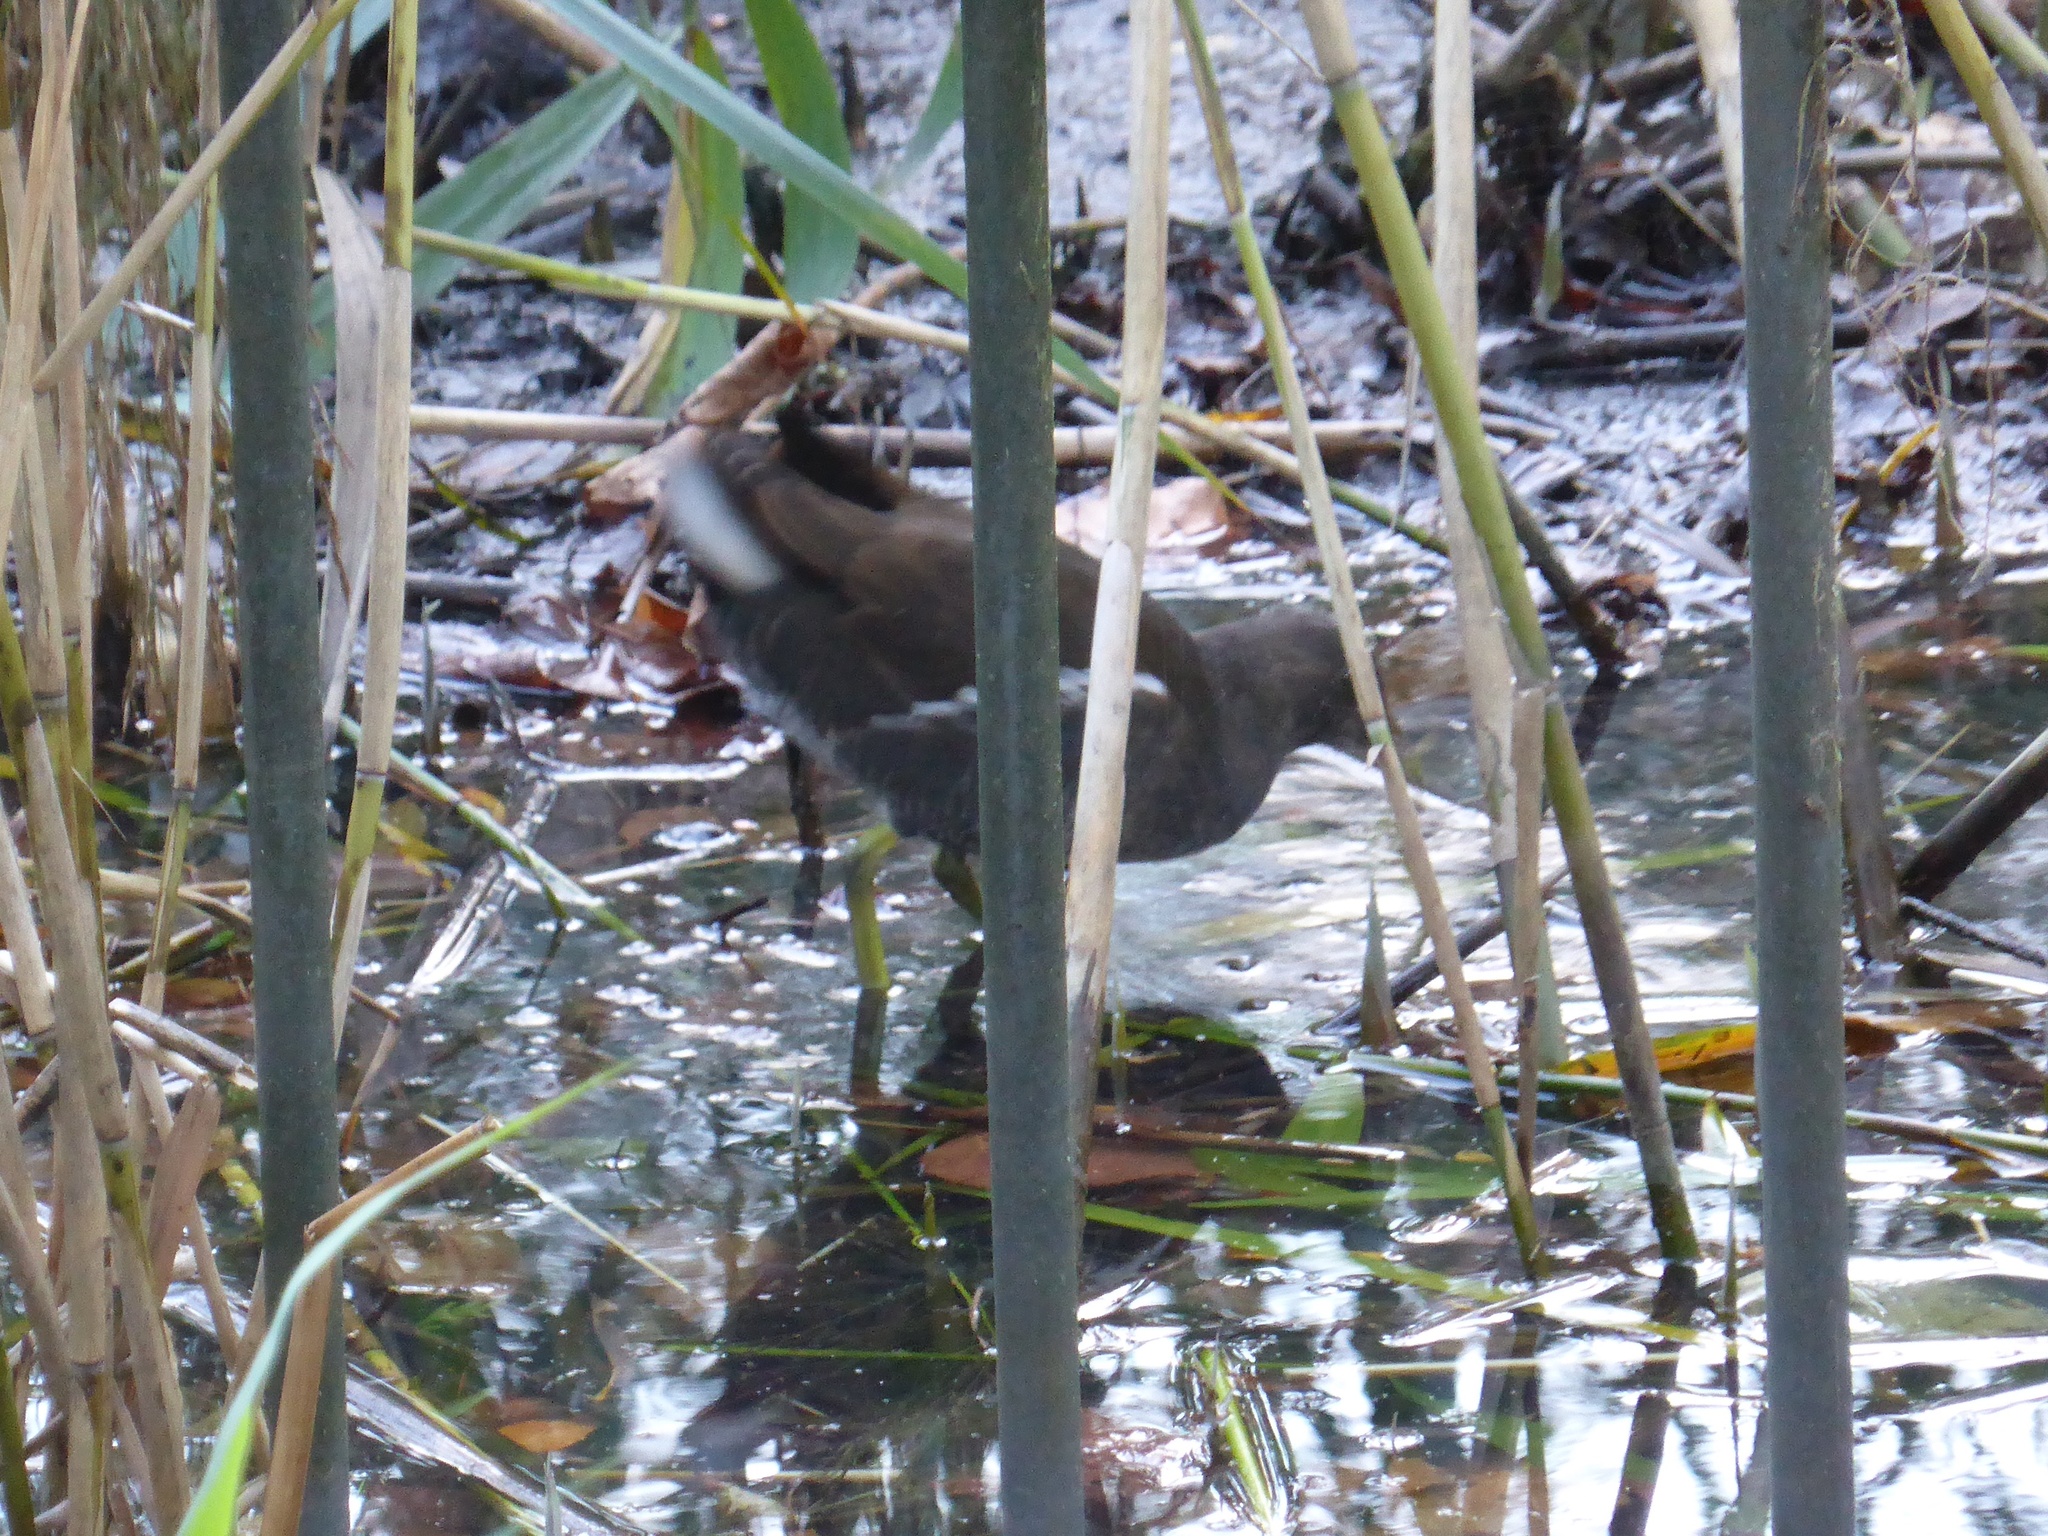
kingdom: Animalia
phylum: Chordata
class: Aves
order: Gruiformes
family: Rallidae
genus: Gallinula
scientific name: Gallinula chloropus
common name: Common moorhen
